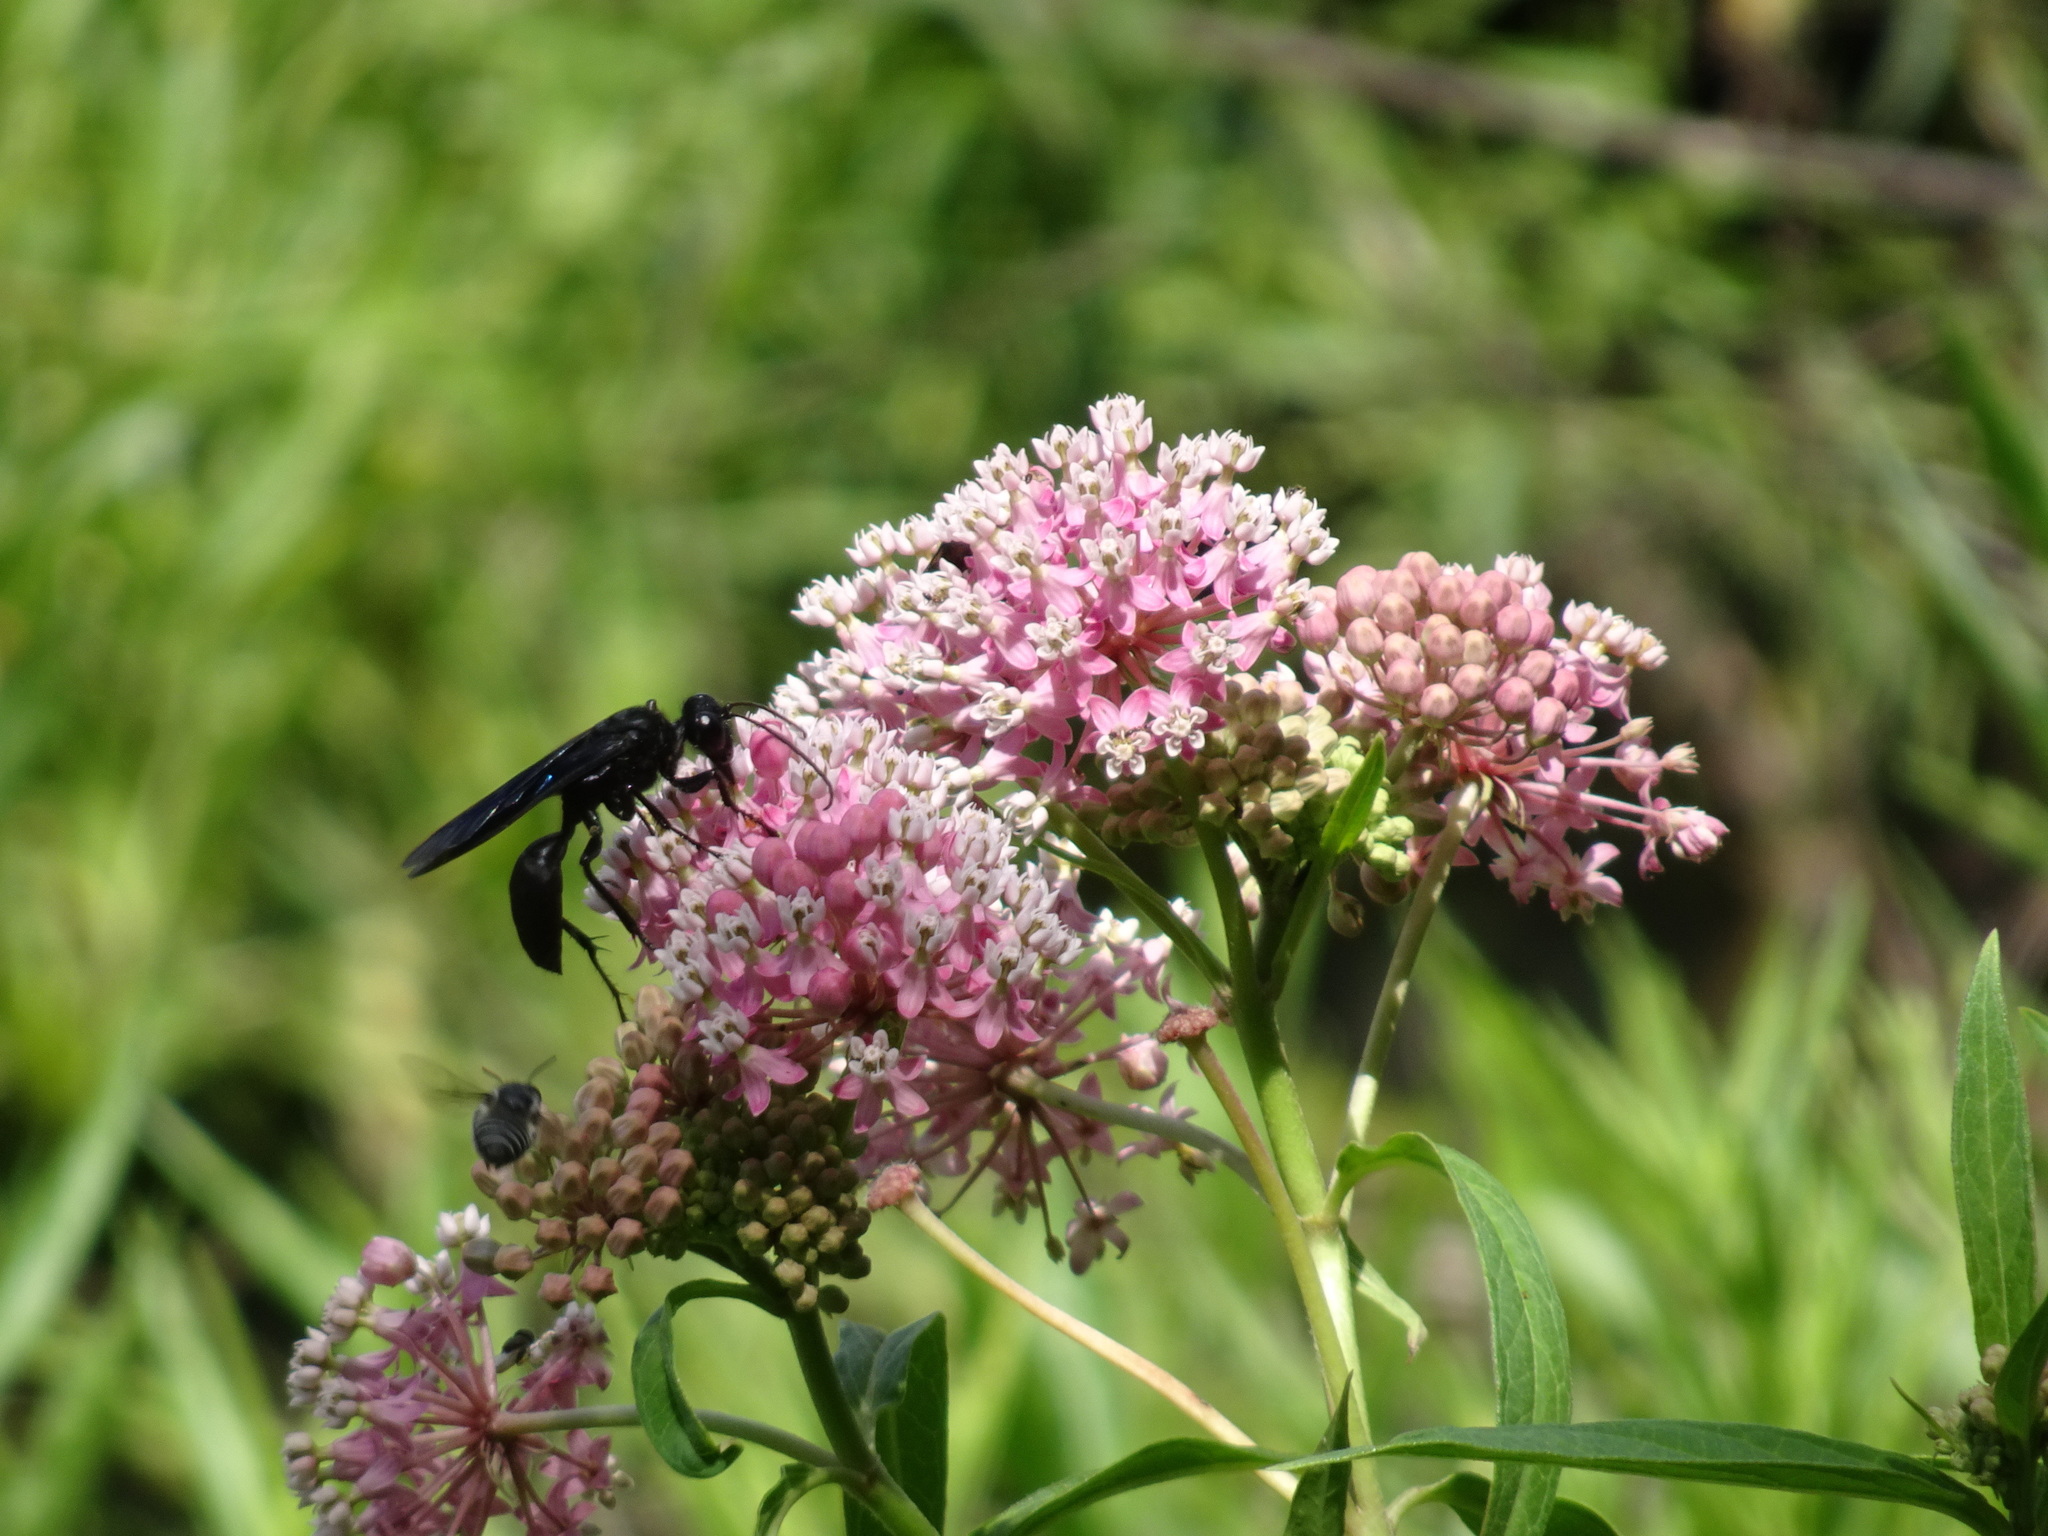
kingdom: Plantae
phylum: Tracheophyta
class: Magnoliopsida
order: Gentianales
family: Apocynaceae
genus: Asclepias
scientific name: Asclepias incarnata
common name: Swamp milkweed
